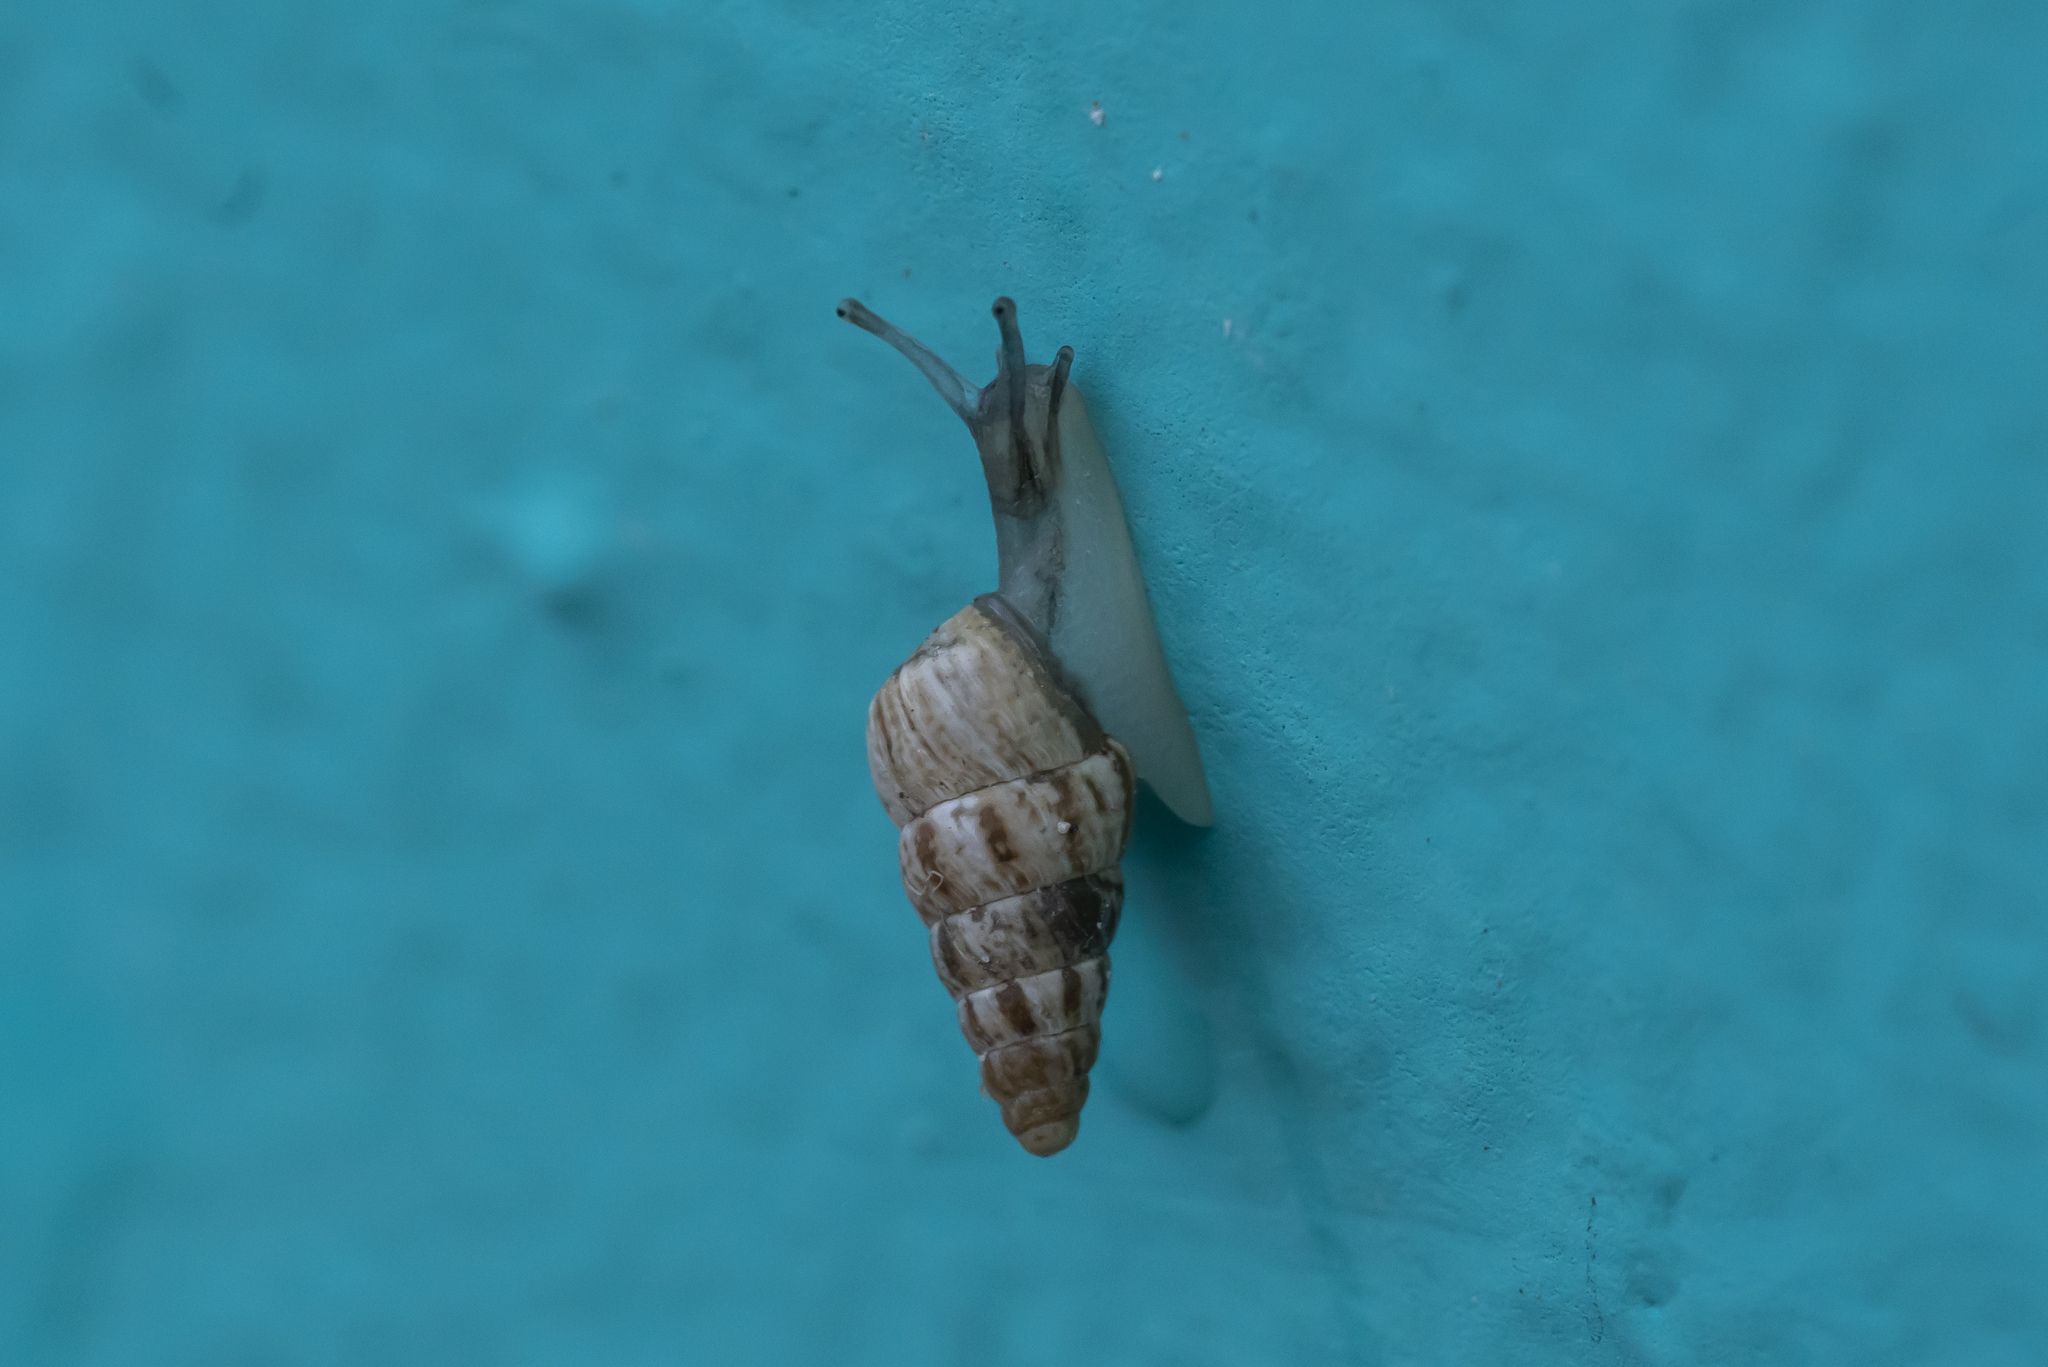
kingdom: Animalia
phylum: Mollusca
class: Gastropoda
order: Stylommatophora
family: Geomitridae
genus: Cochlicella
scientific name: Cochlicella barbara
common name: Potbellied helicellid
